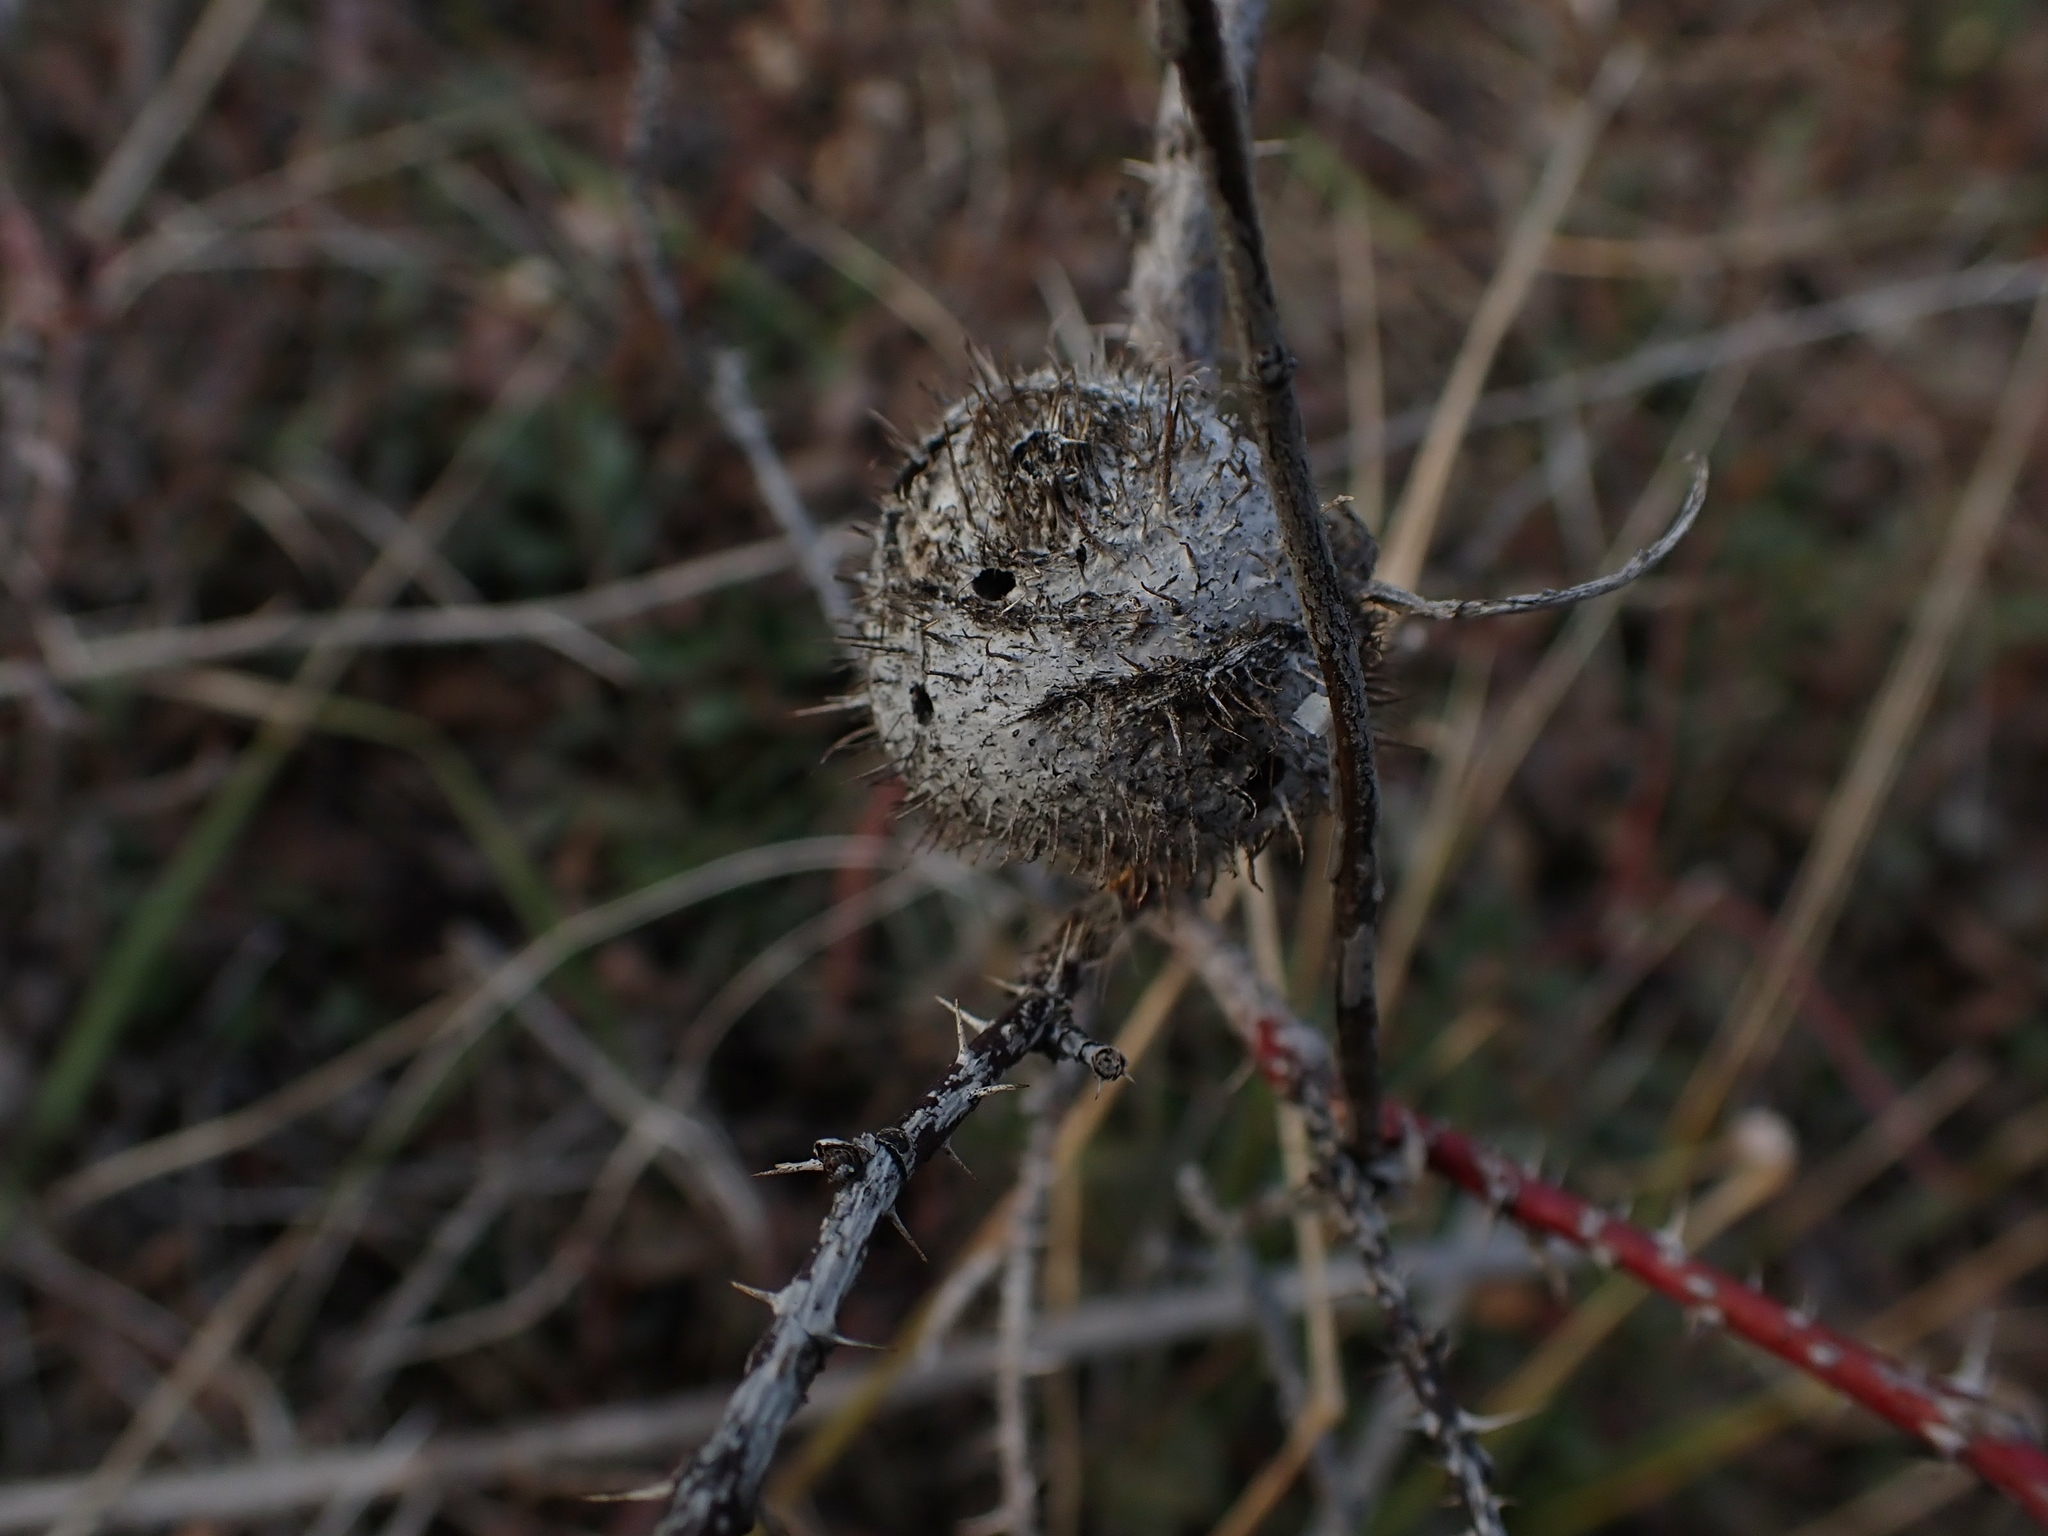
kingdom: Animalia
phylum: Arthropoda
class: Insecta
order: Hymenoptera
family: Cynipidae
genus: Diplolepis
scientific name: Diplolepis spinosa
